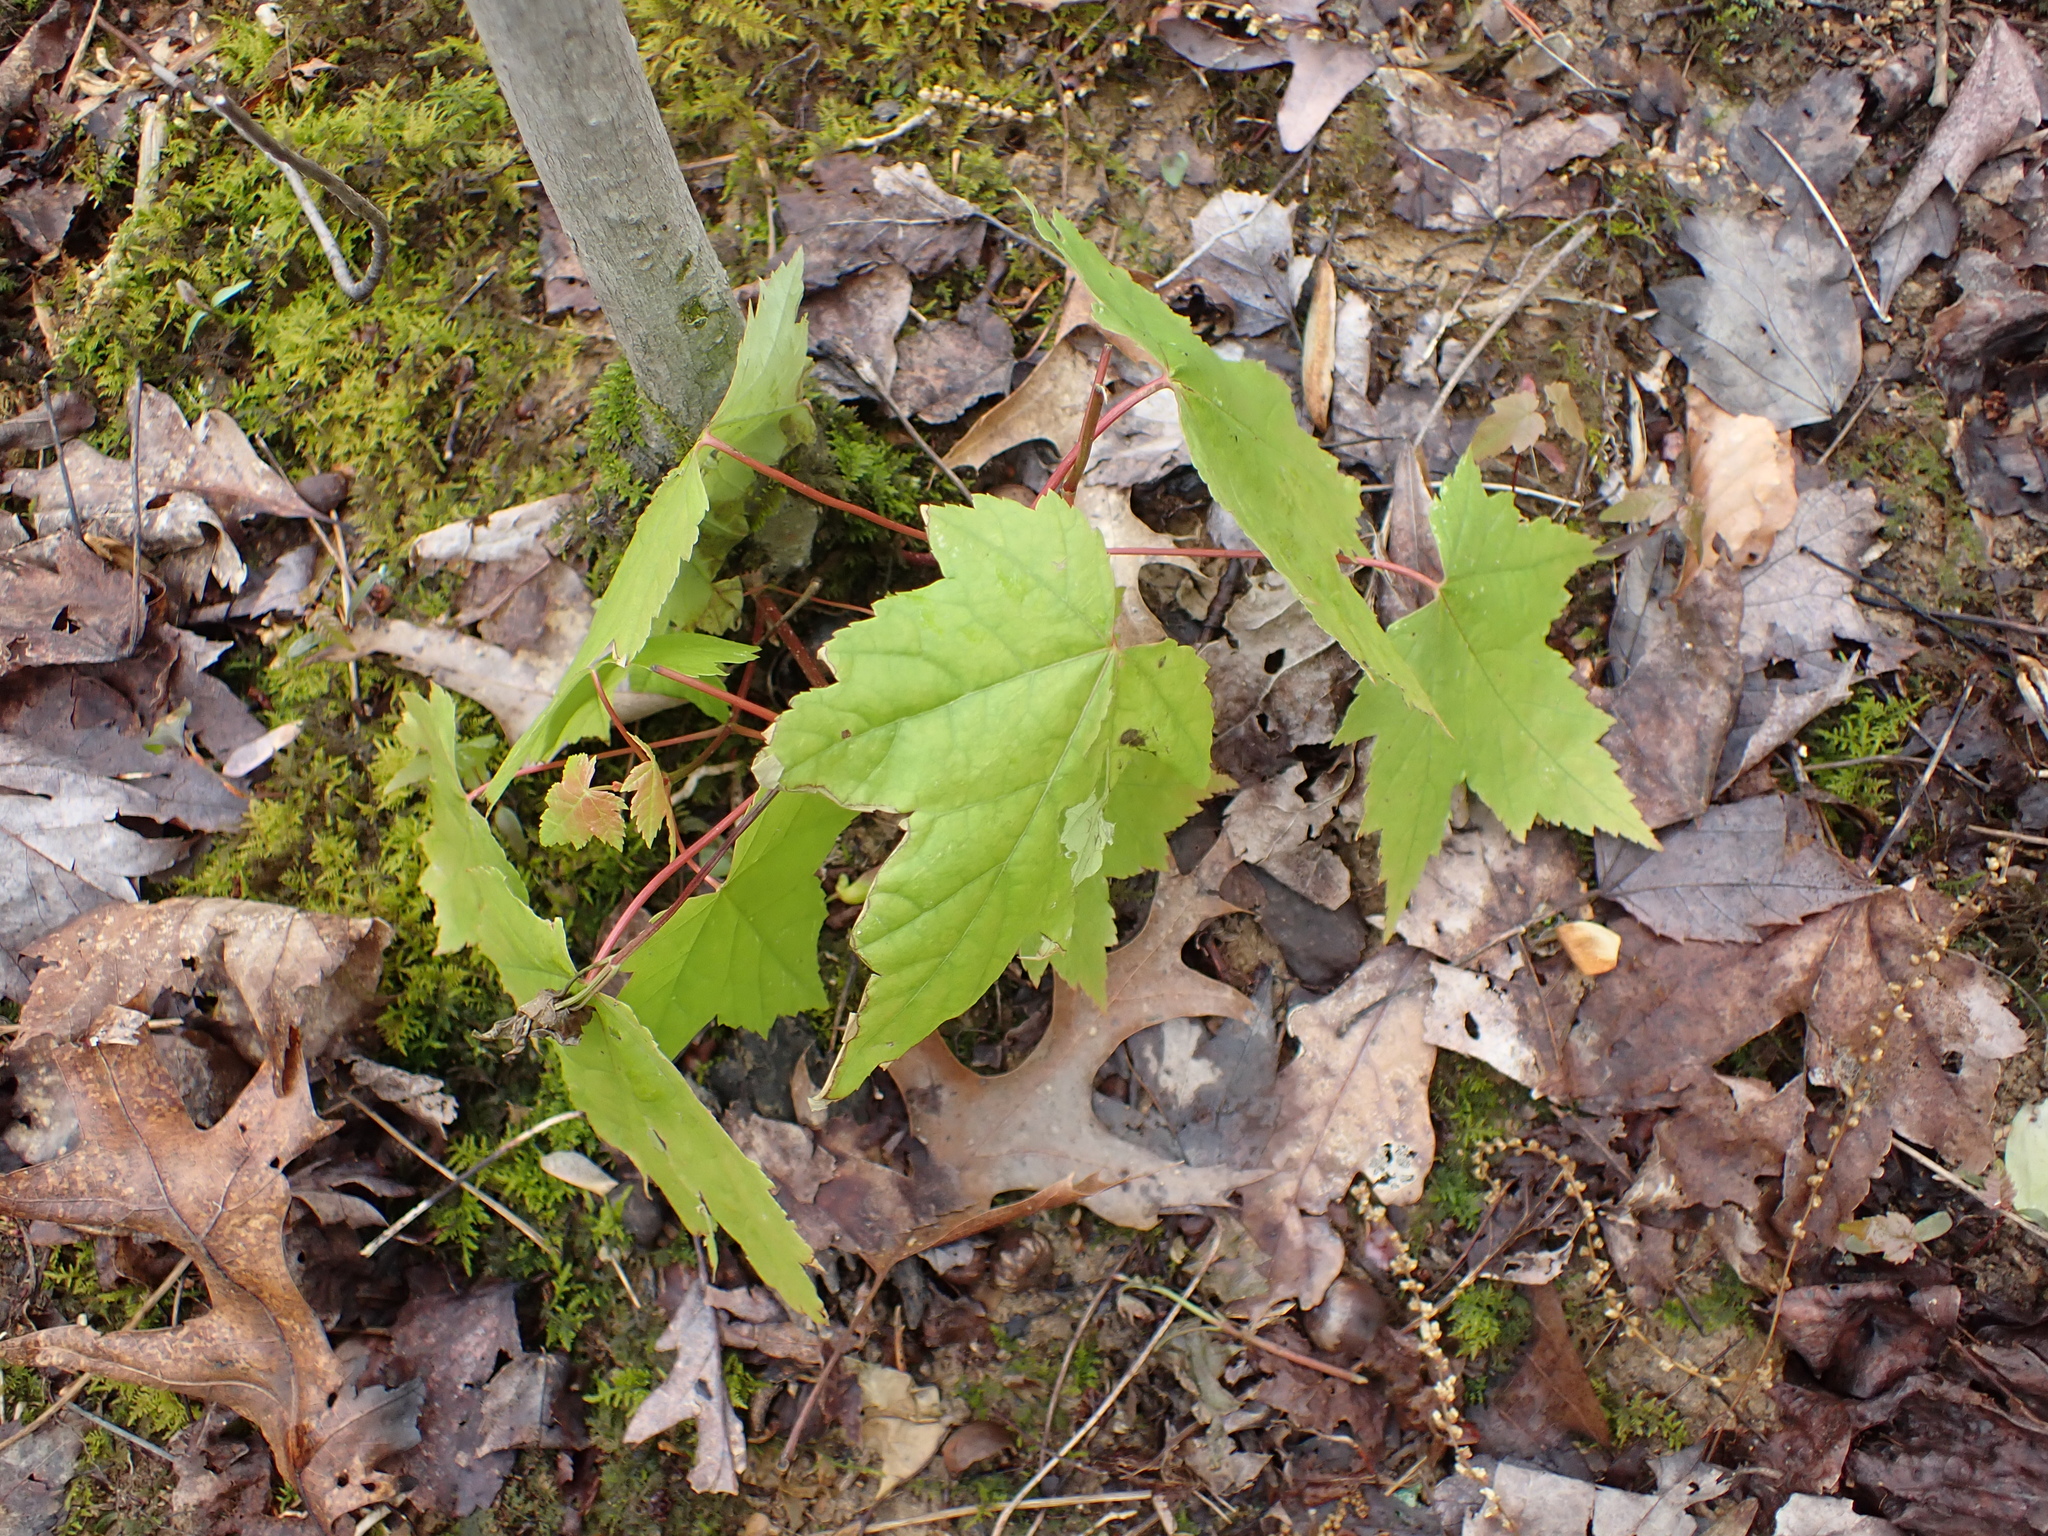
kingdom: Plantae
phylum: Tracheophyta
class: Magnoliopsida
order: Sapindales
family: Sapindaceae
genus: Acer
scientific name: Acer rubrum
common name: Red maple
